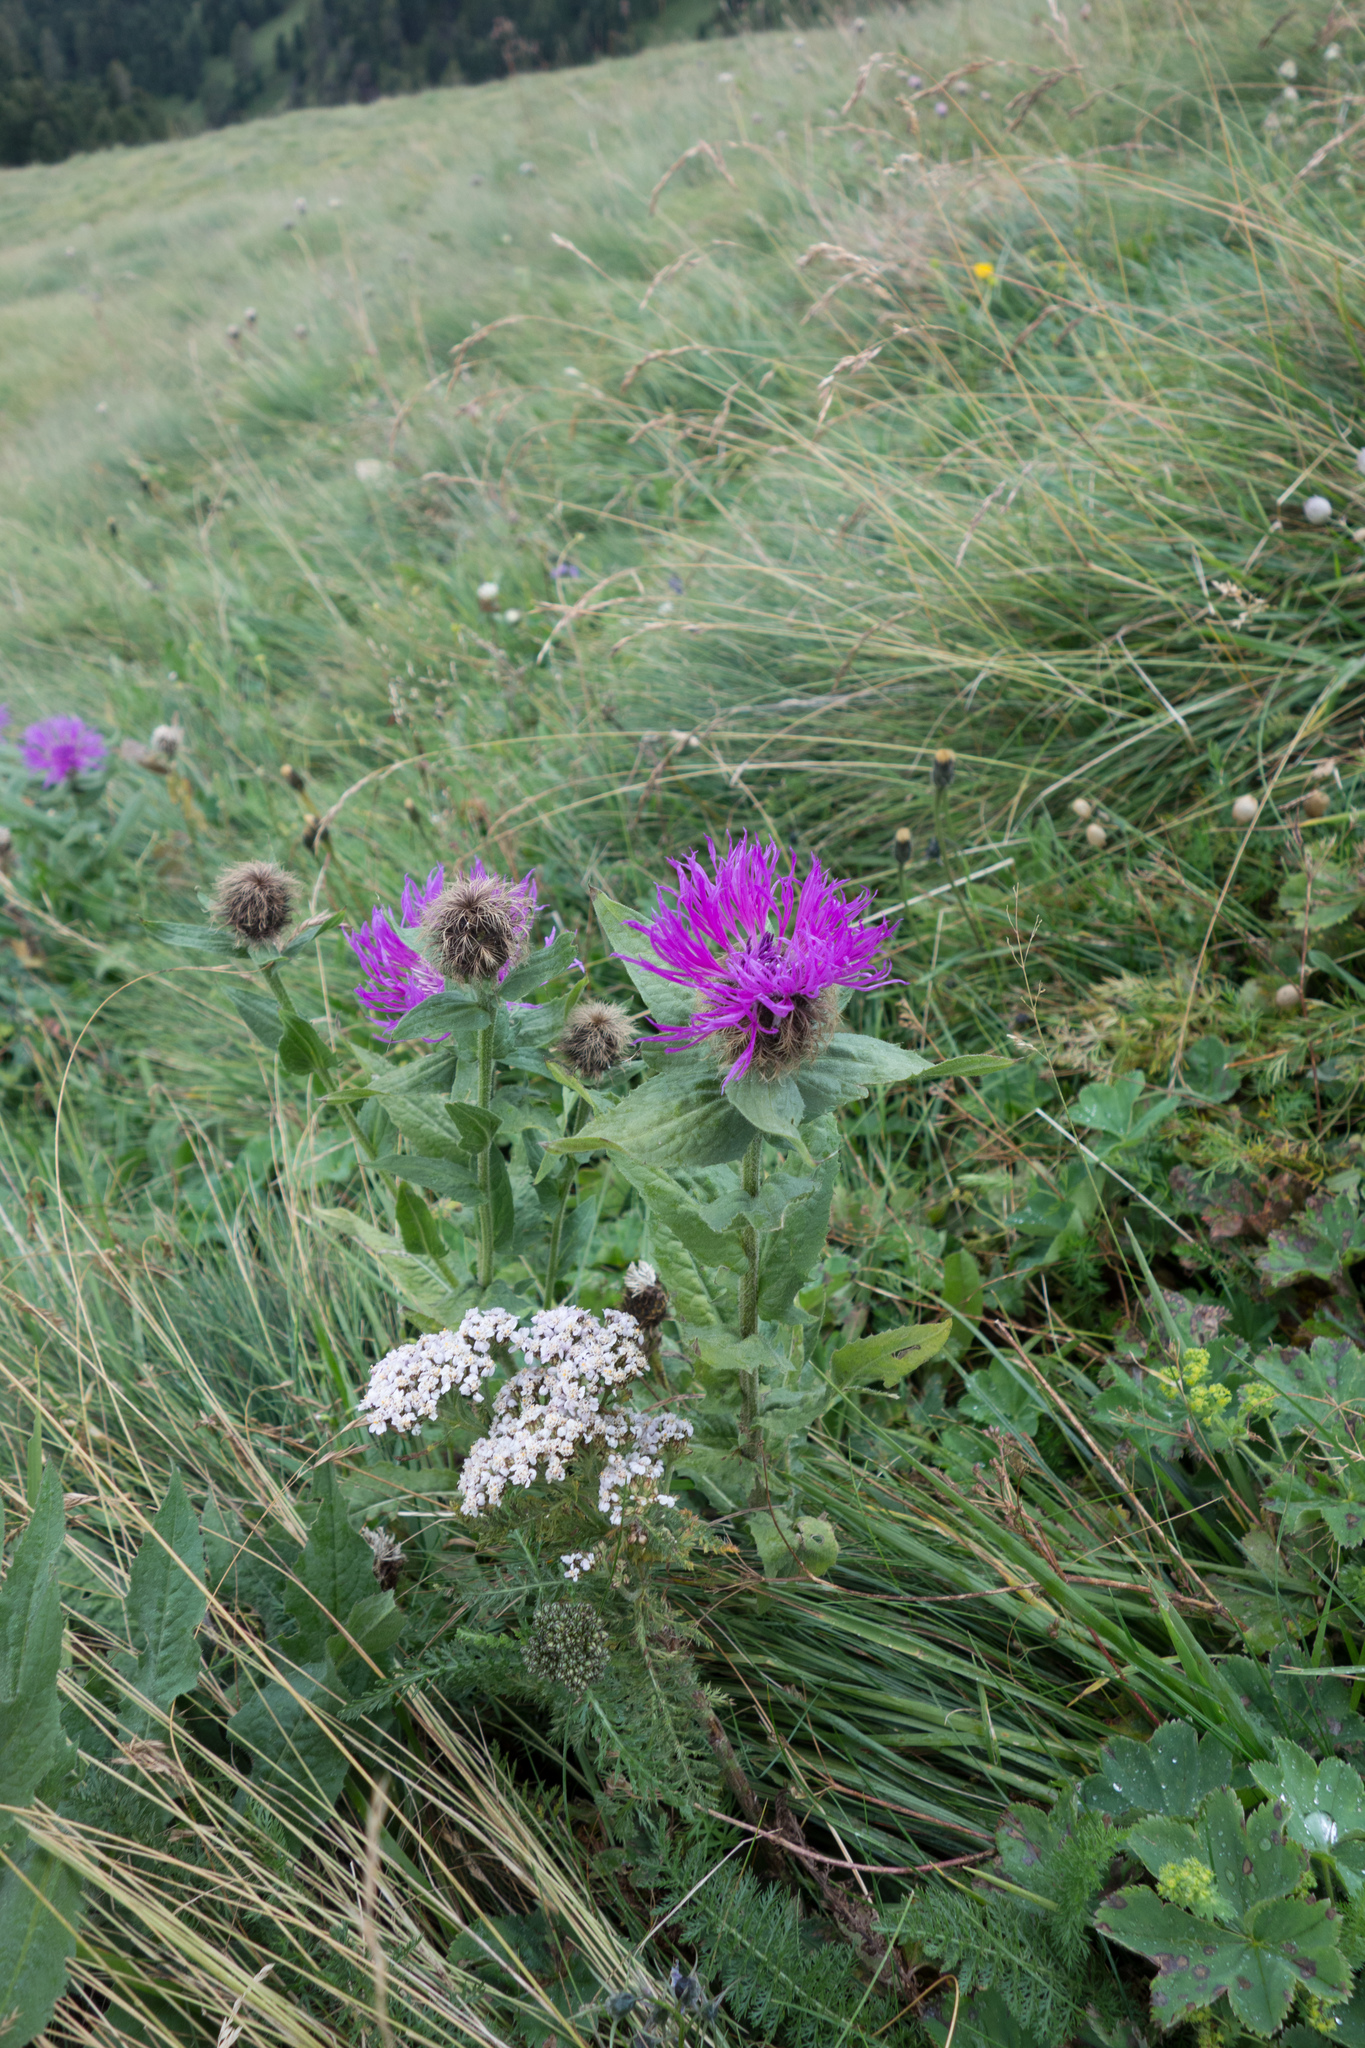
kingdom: Plantae
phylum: Tracheophyta
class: Magnoliopsida
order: Asterales
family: Asteraceae
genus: Centaurea
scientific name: Centaurea nervosa
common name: Singleflower knapweed
